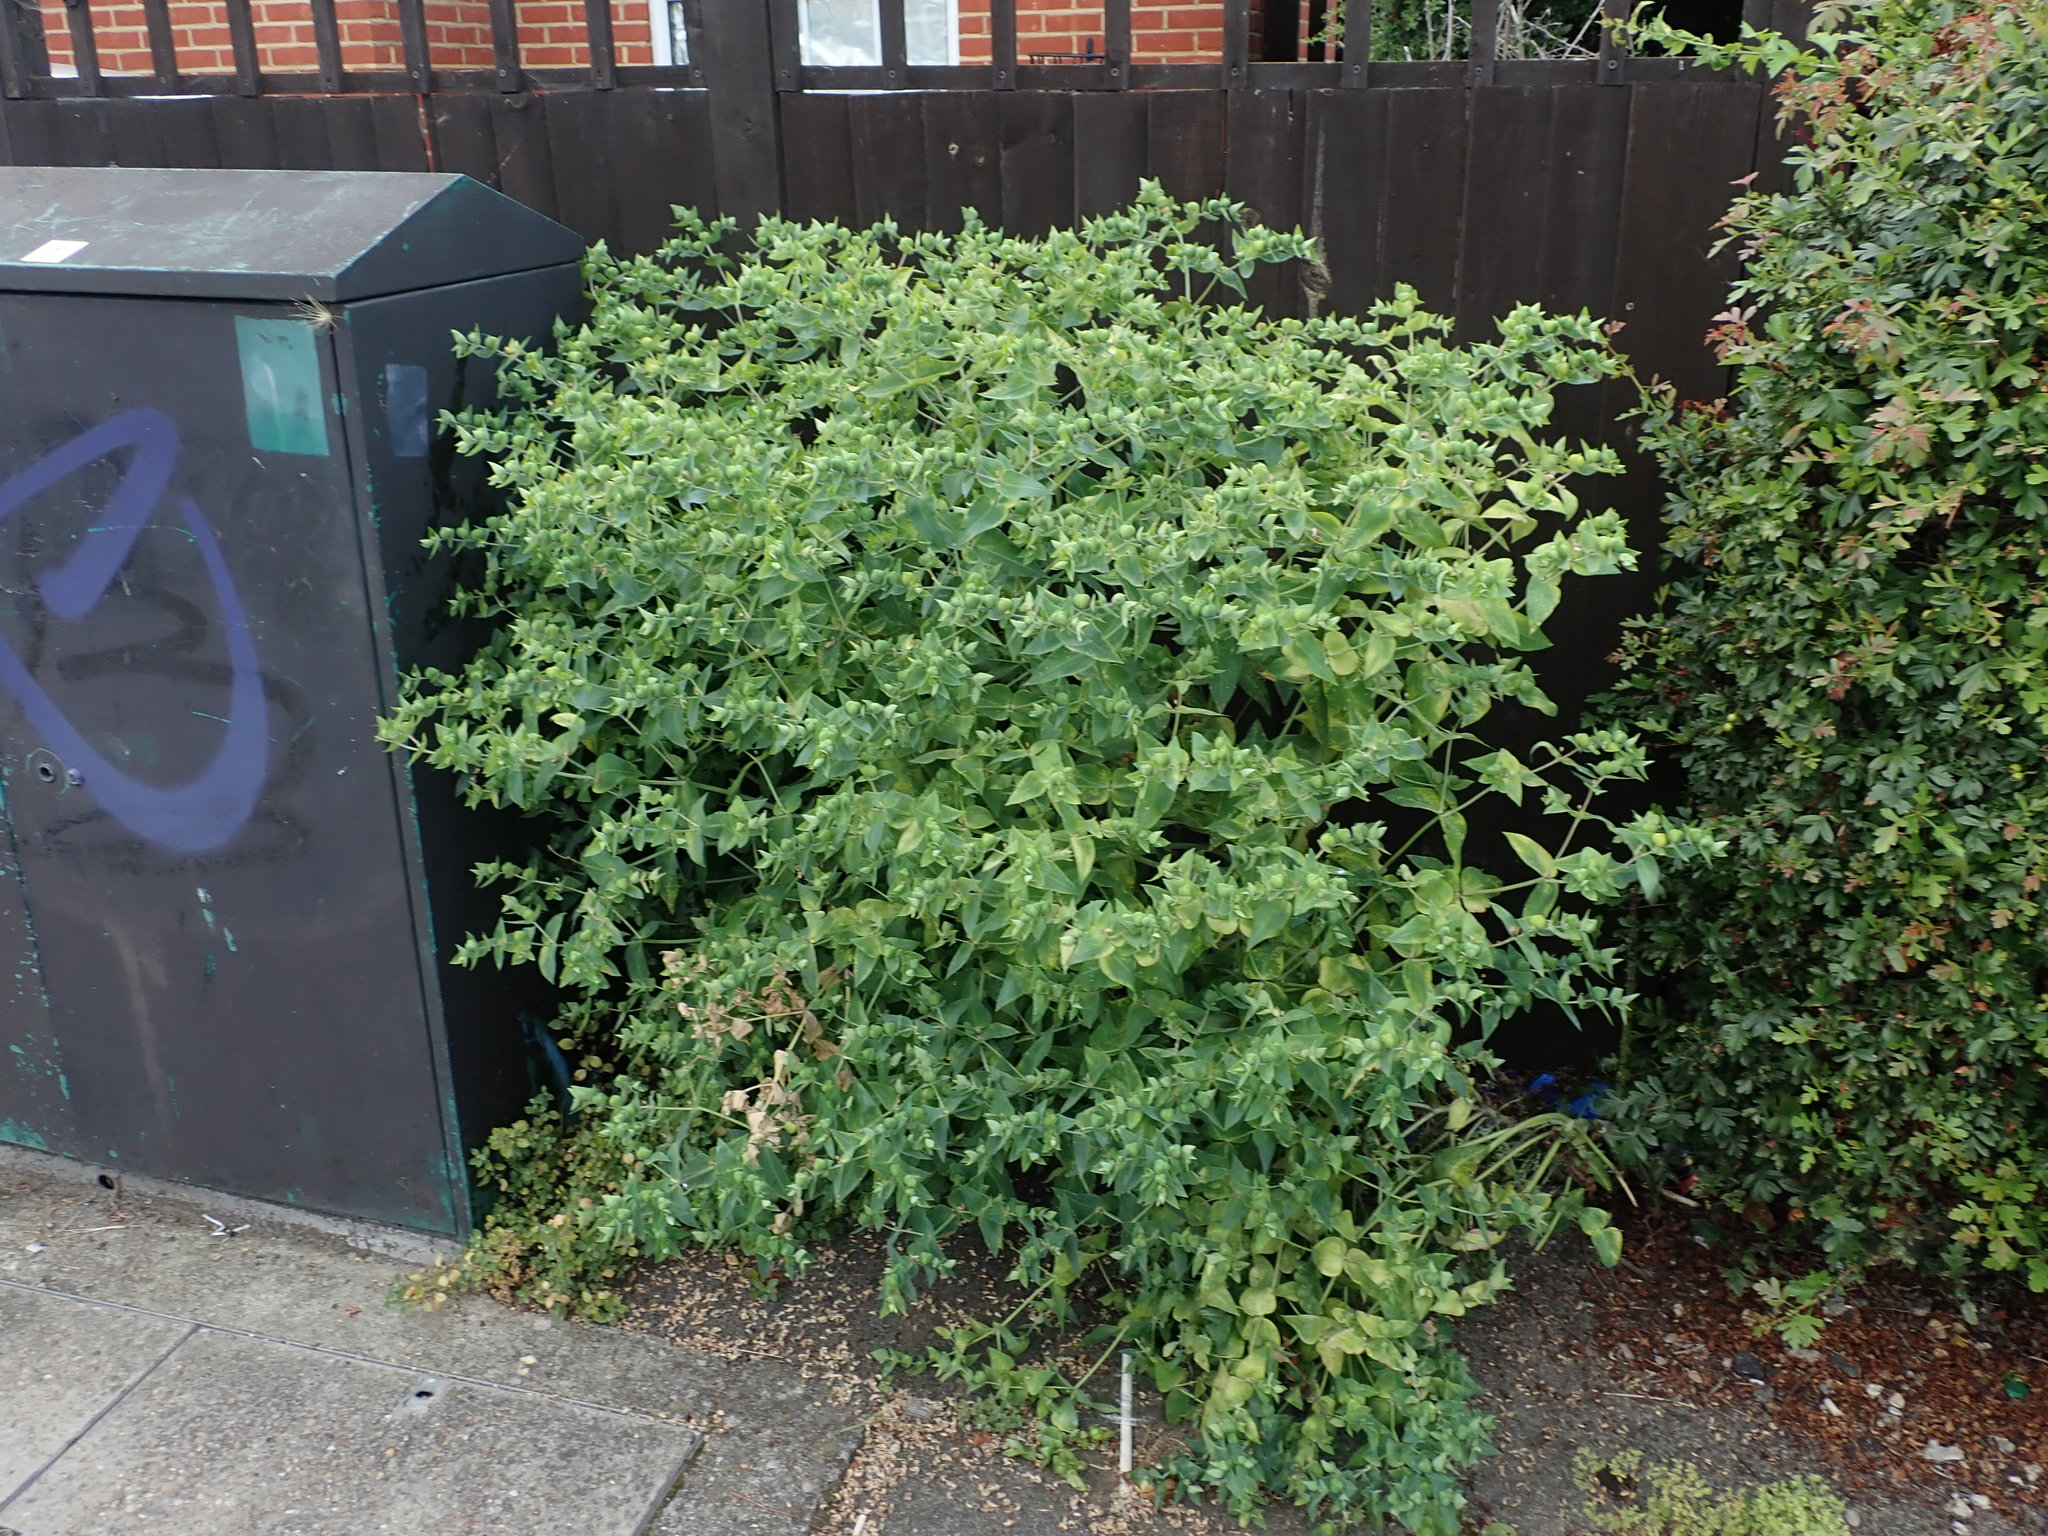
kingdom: Plantae
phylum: Tracheophyta
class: Magnoliopsida
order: Malpighiales
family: Euphorbiaceae
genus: Euphorbia
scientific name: Euphorbia lathyris
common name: Caper spurge
